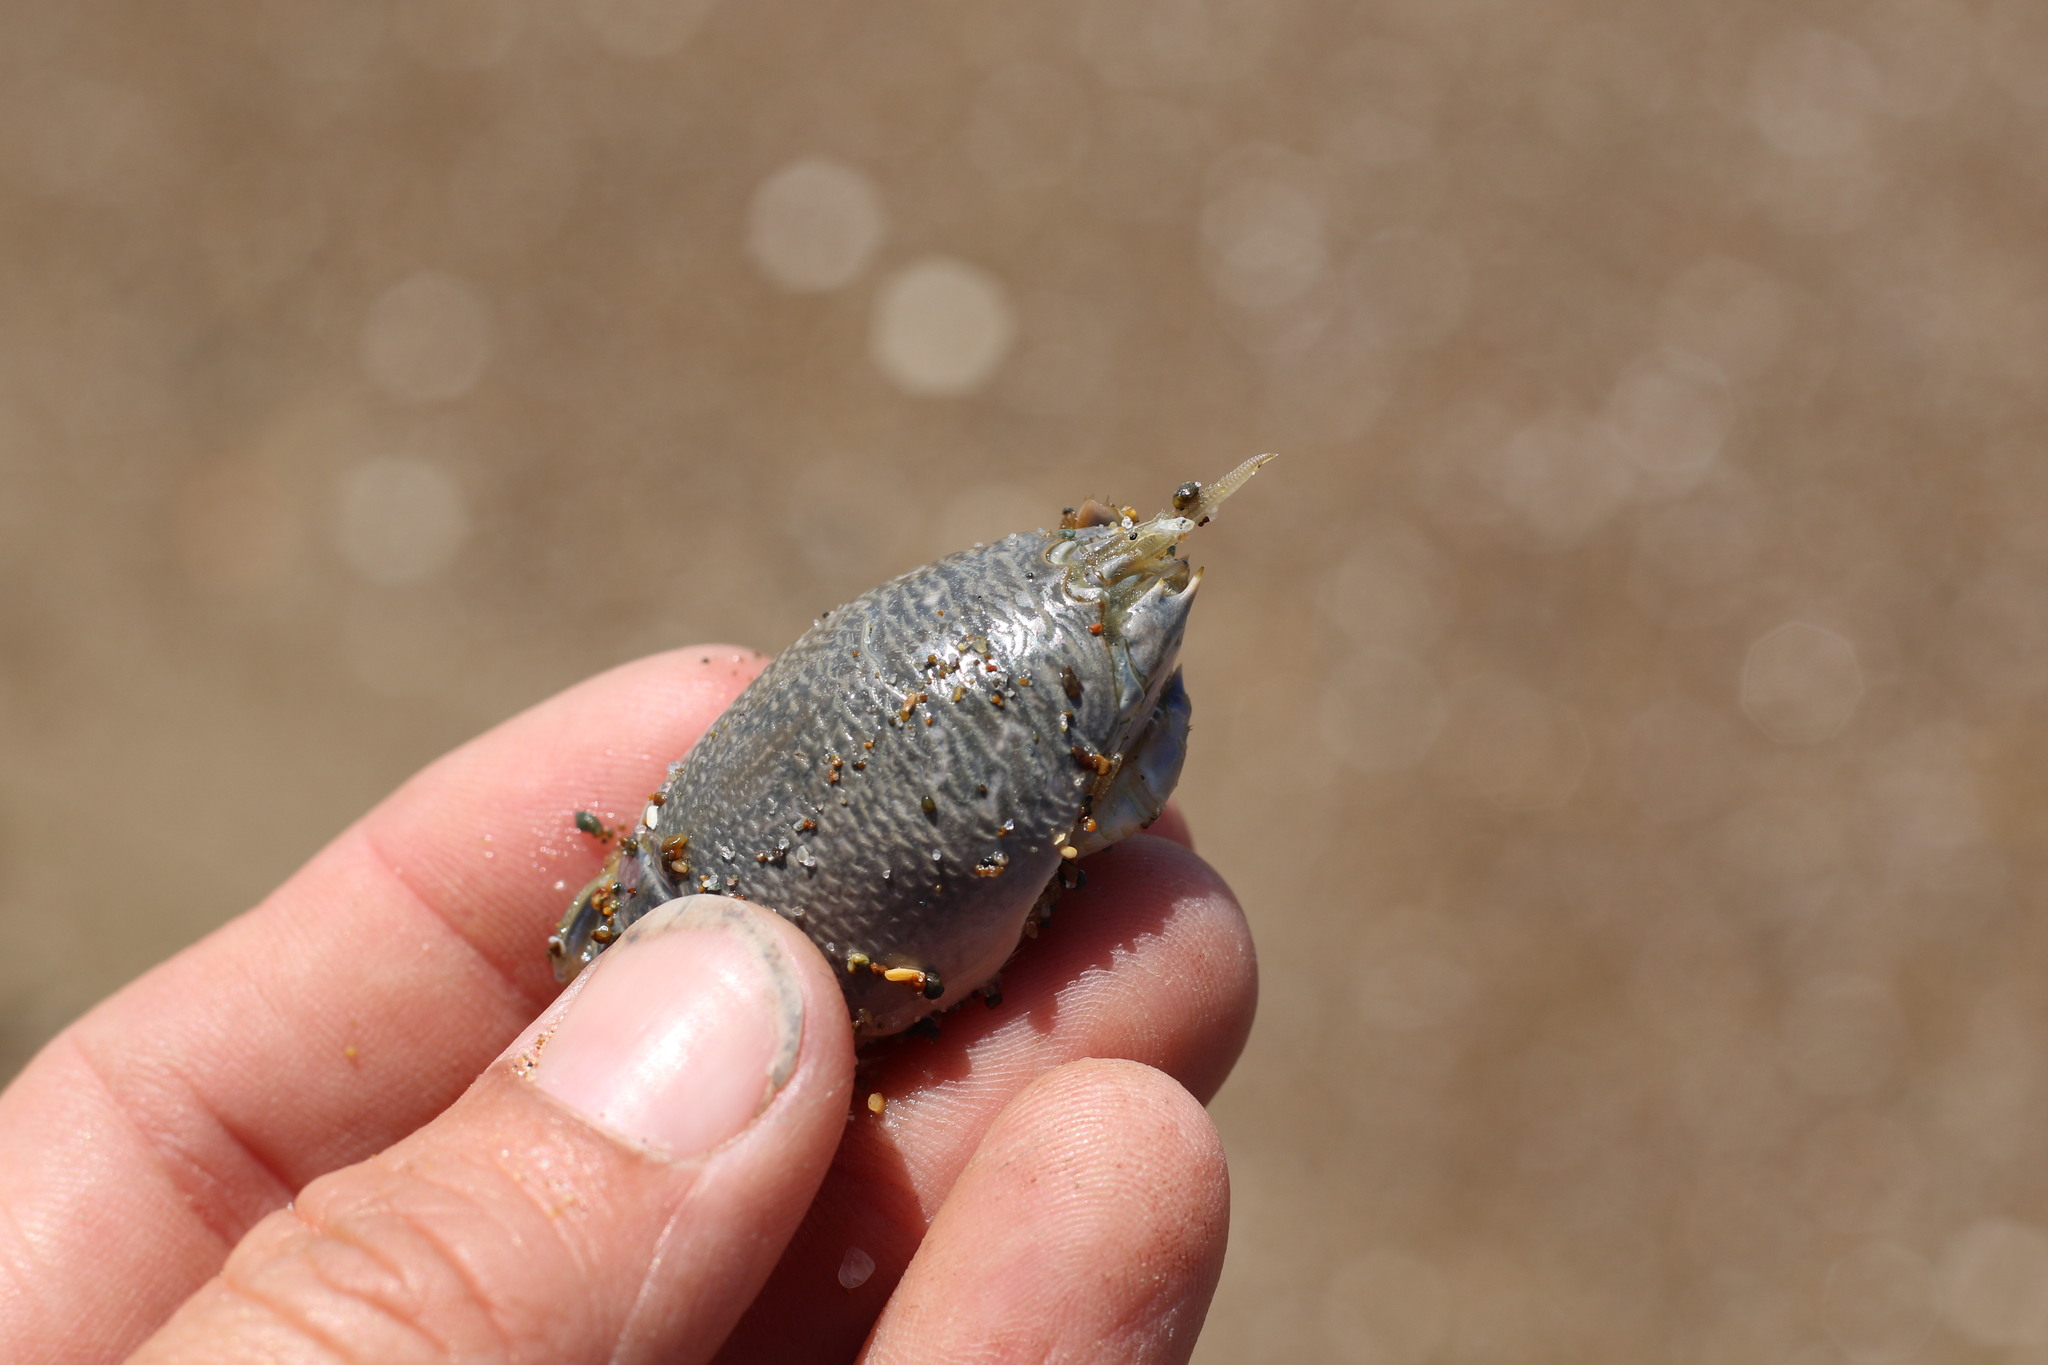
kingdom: Animalia
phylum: Arthropoda
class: Malacostraca
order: Decapoda
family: Hippidae
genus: Emerita
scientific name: Emerita analoga
